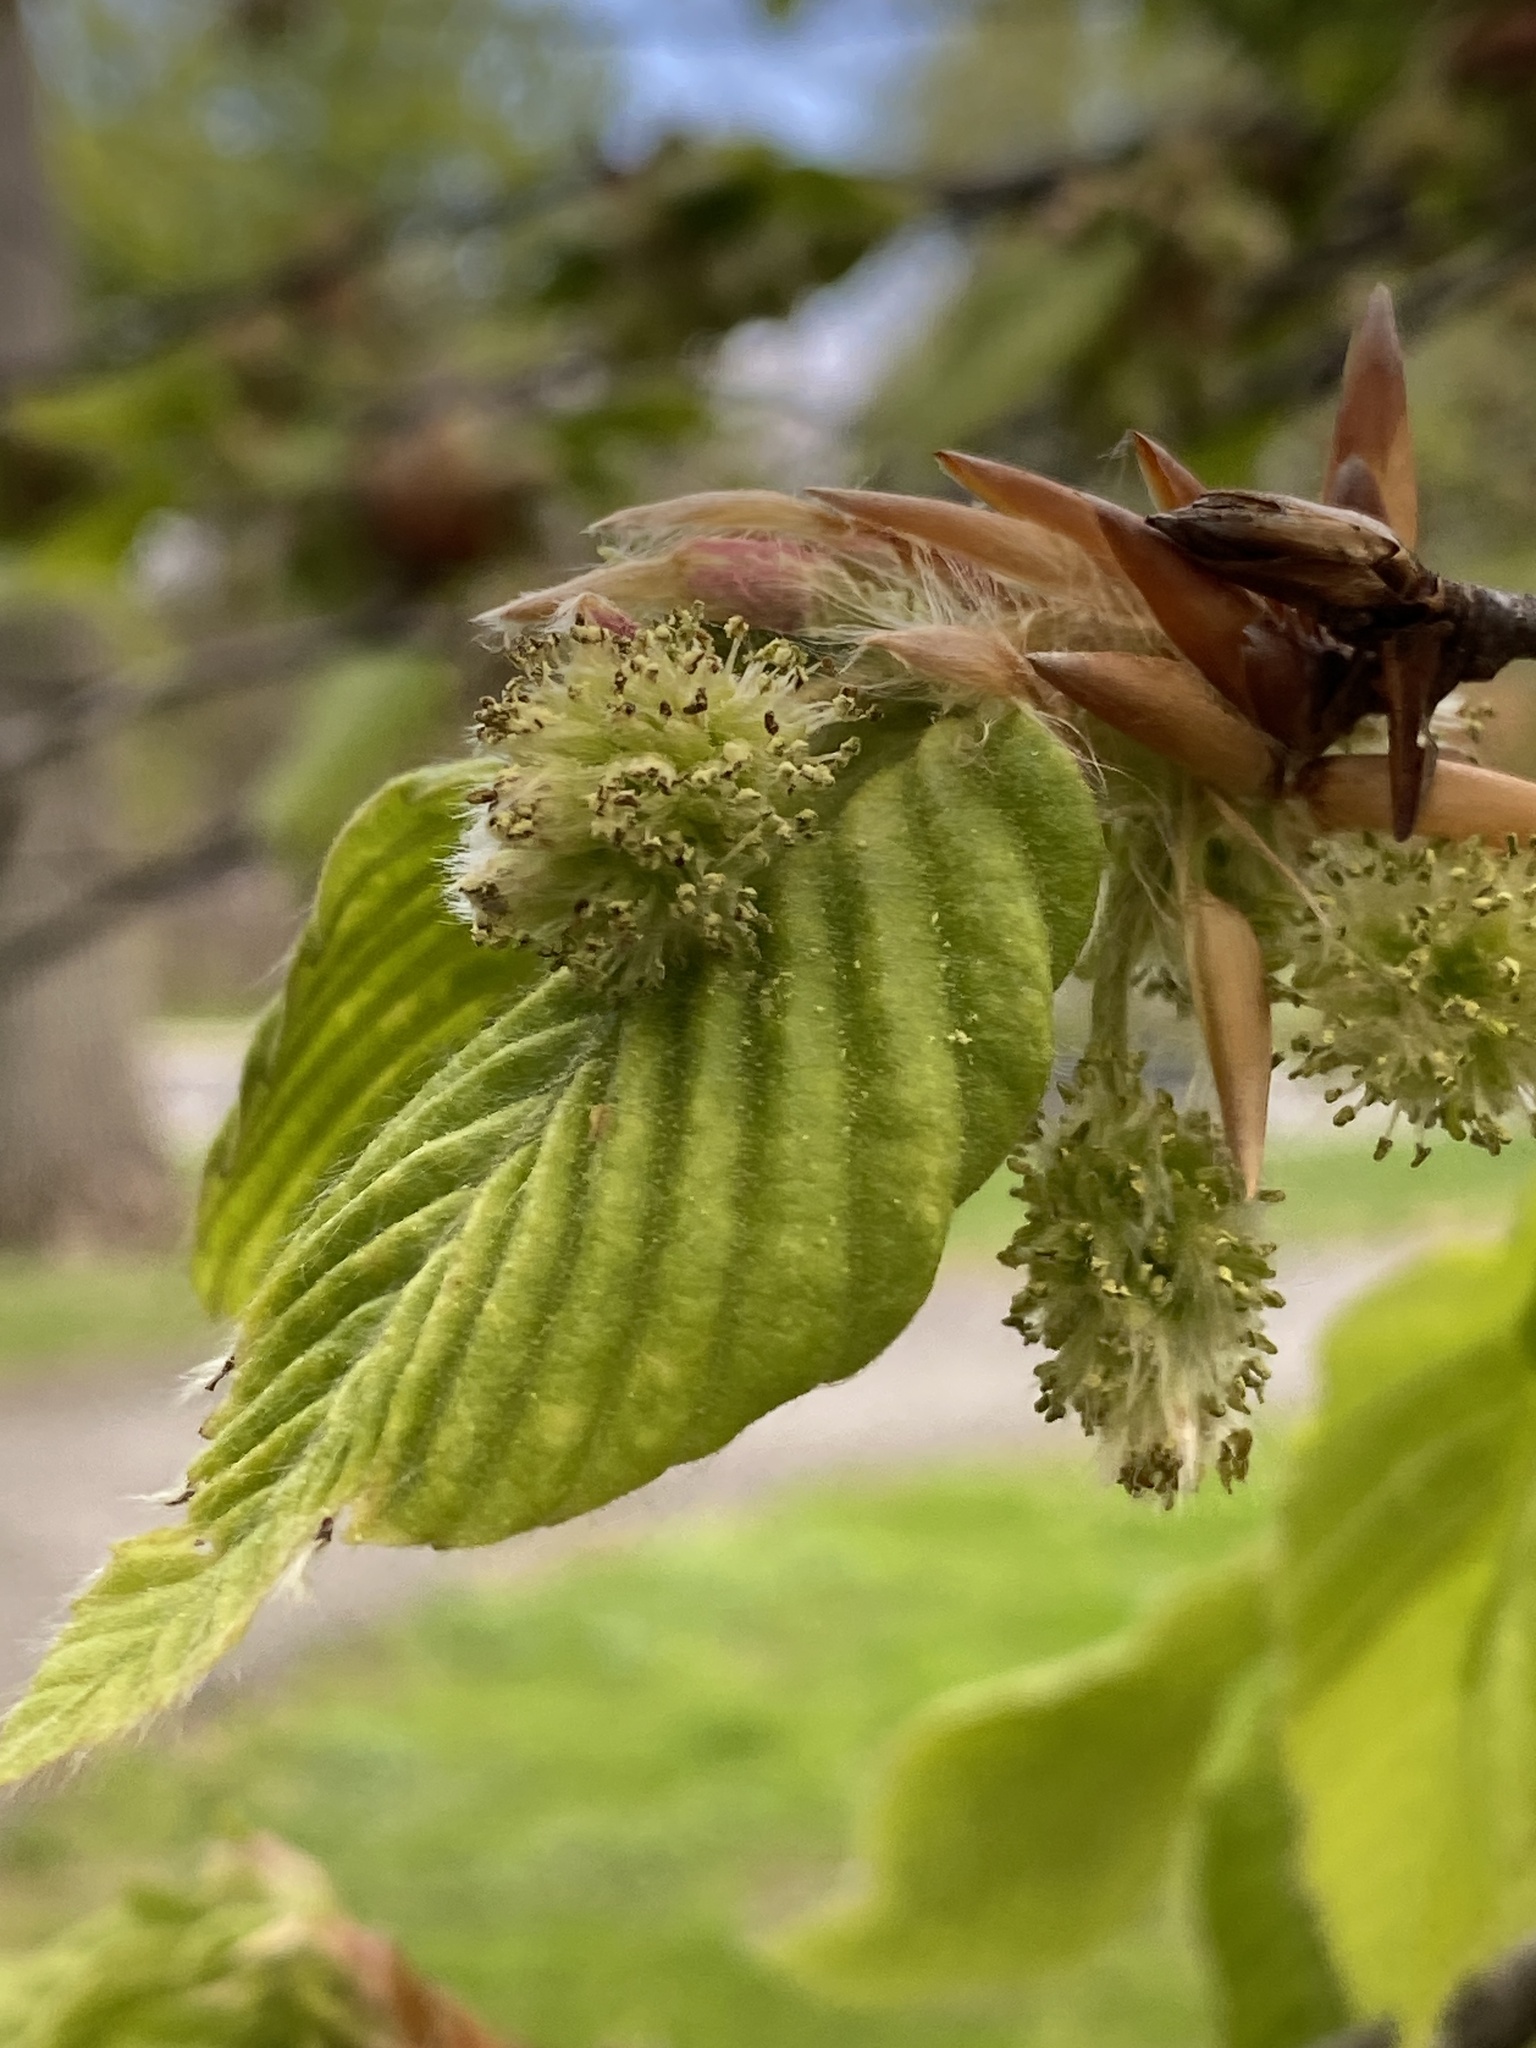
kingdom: Plantae
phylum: Tracheophyta
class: Magnoliopsida
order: Fagales
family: Fagaceae
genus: Fagus
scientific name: Fagus grandifolia
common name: American beech
